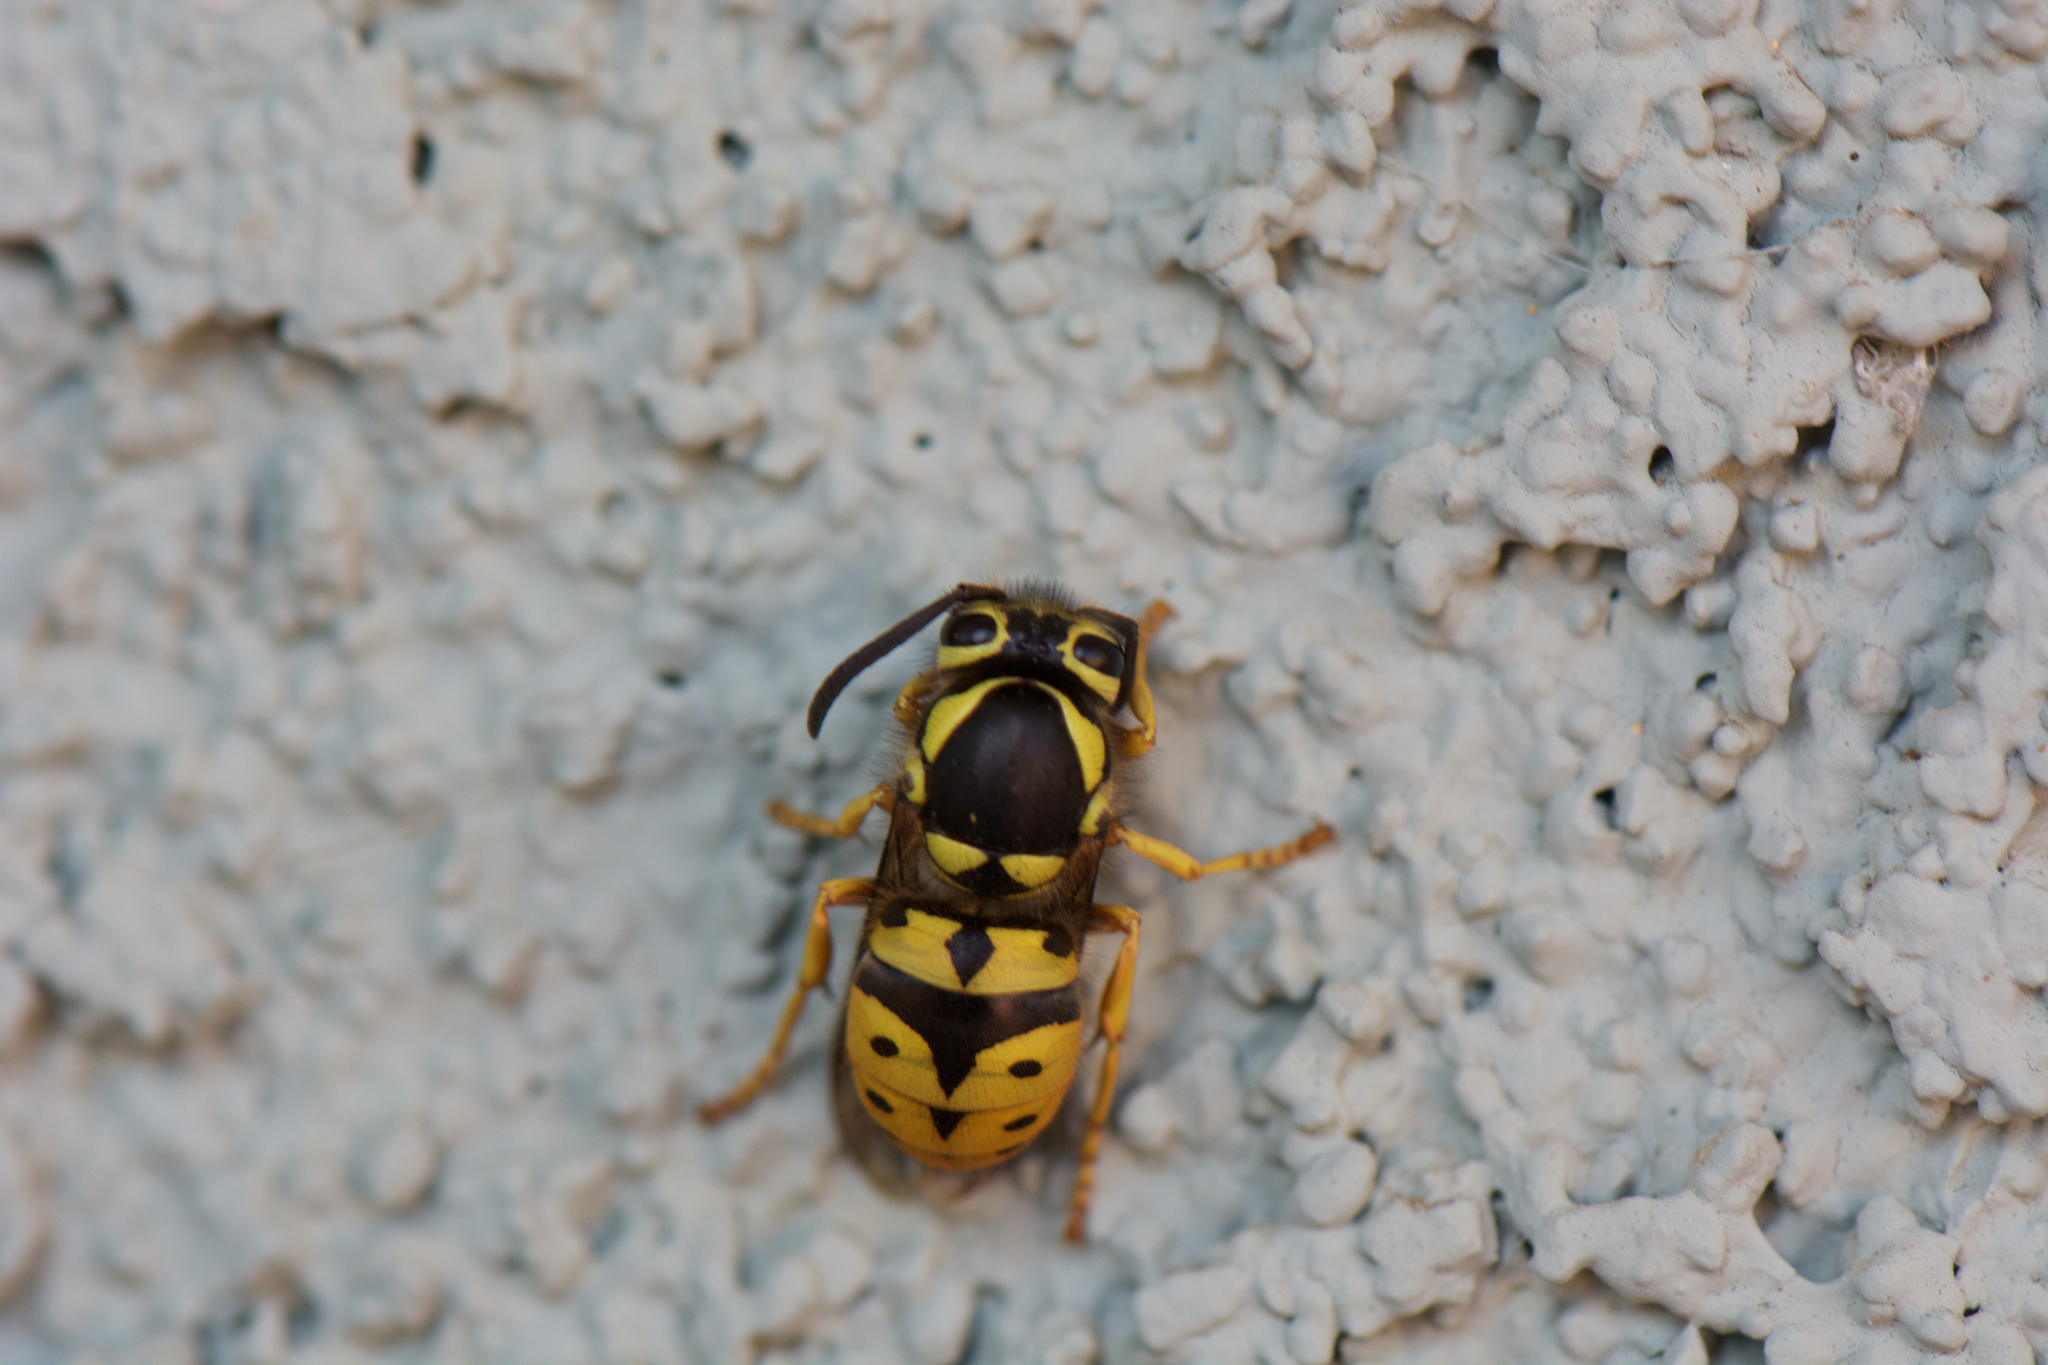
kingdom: Animalia
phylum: Arthropoda
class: Insecta
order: Hymenoptera
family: Vespidae
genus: Vespula
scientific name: Vespula pensylvanica
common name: Western yellowjacket
